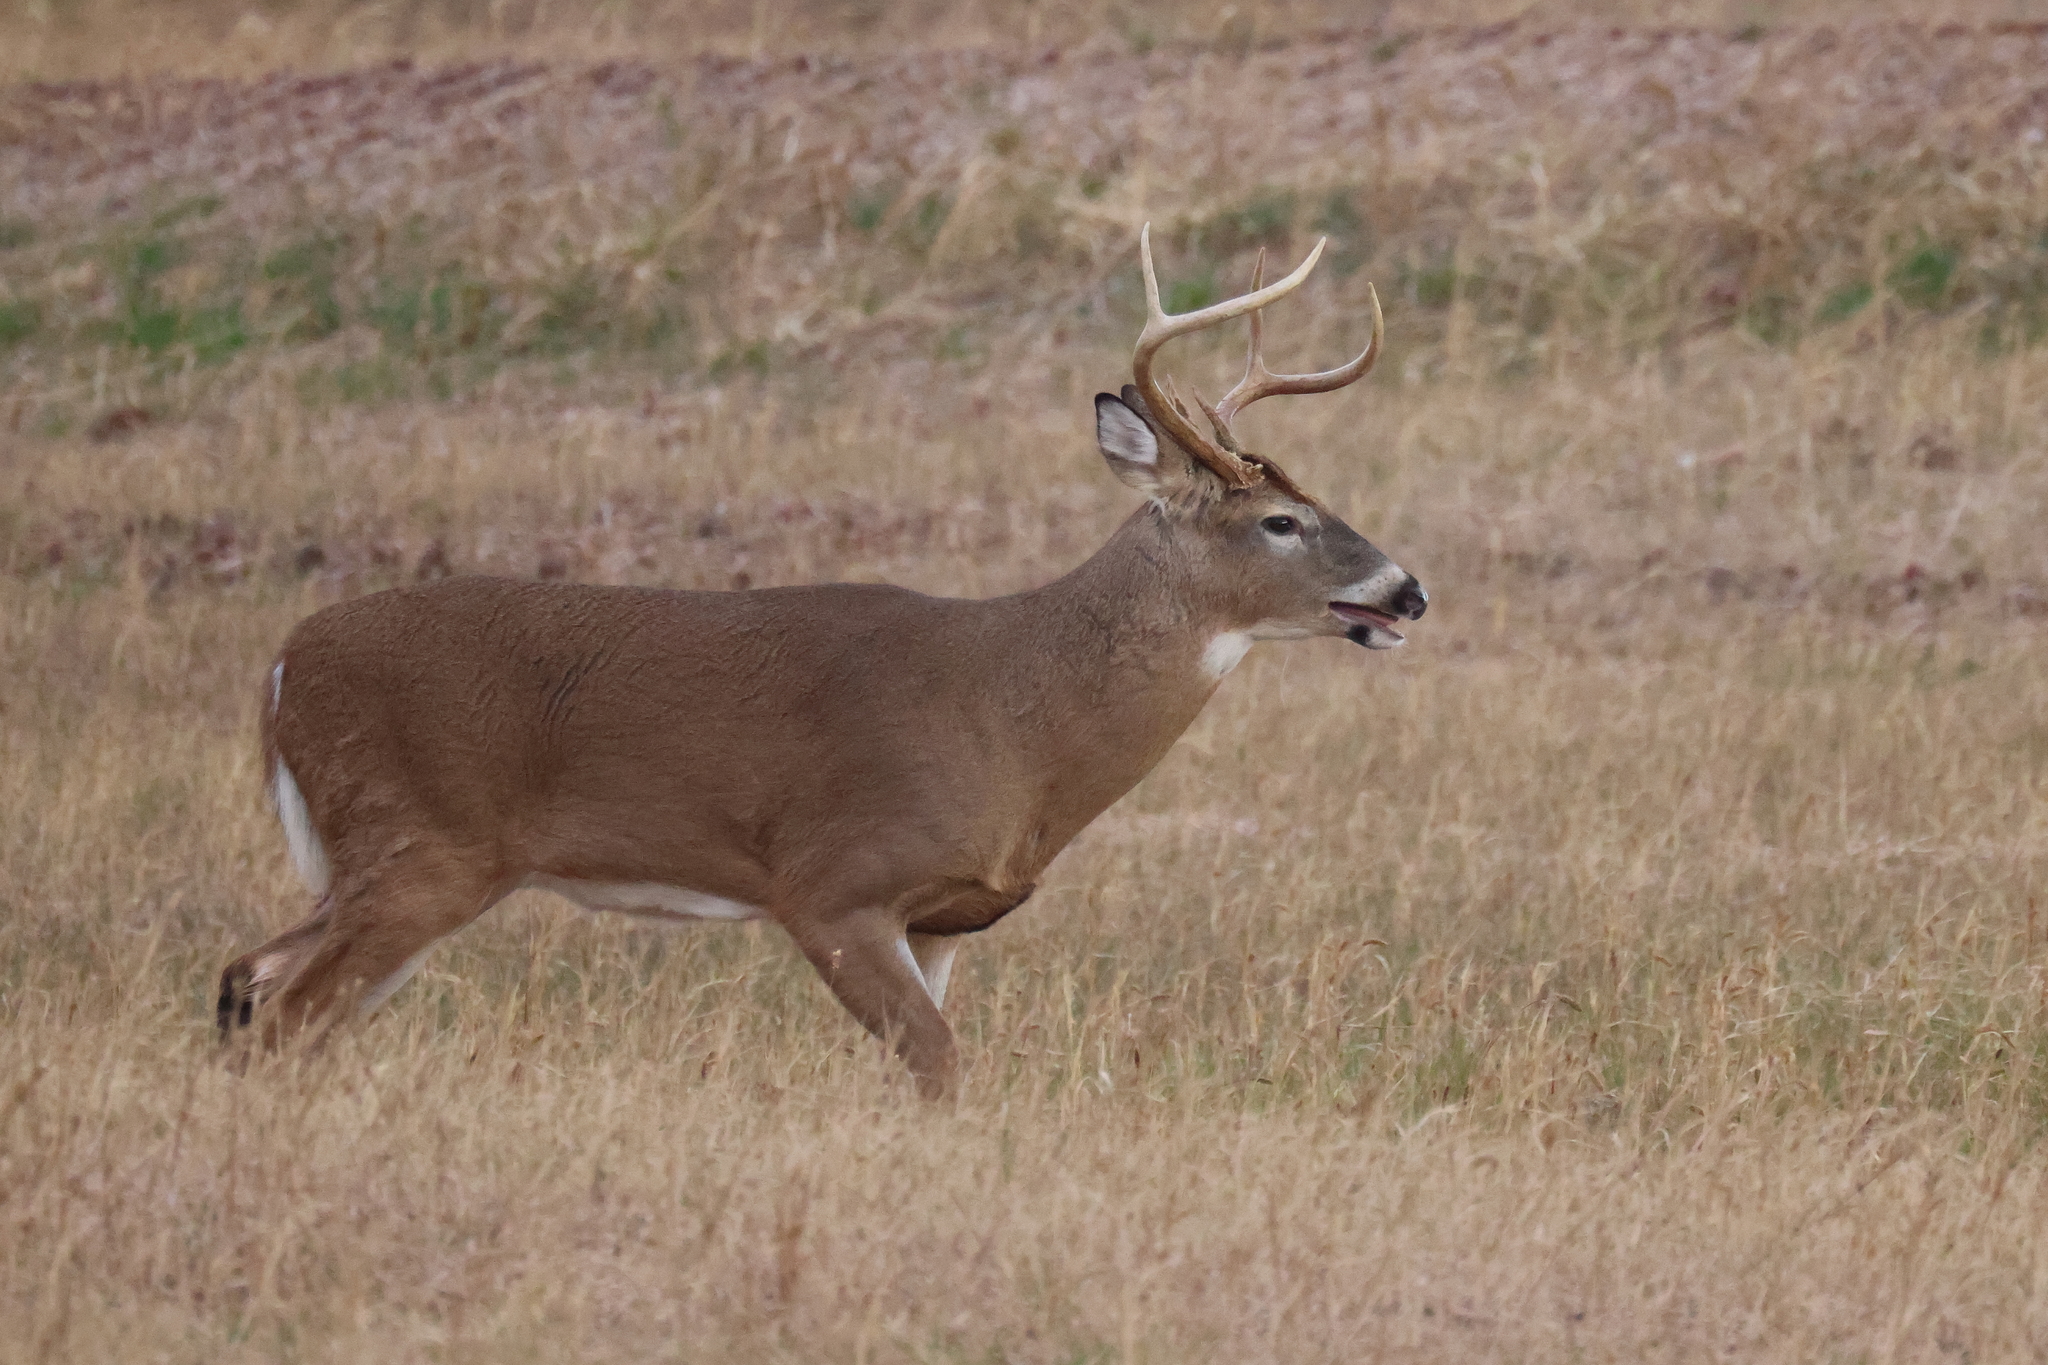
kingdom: Animalia
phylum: Chordata
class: Mammalia
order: Artiodactyla
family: Cervidae
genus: Odocoileus
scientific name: Odocoileus virginianus
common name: White-tailed deer
